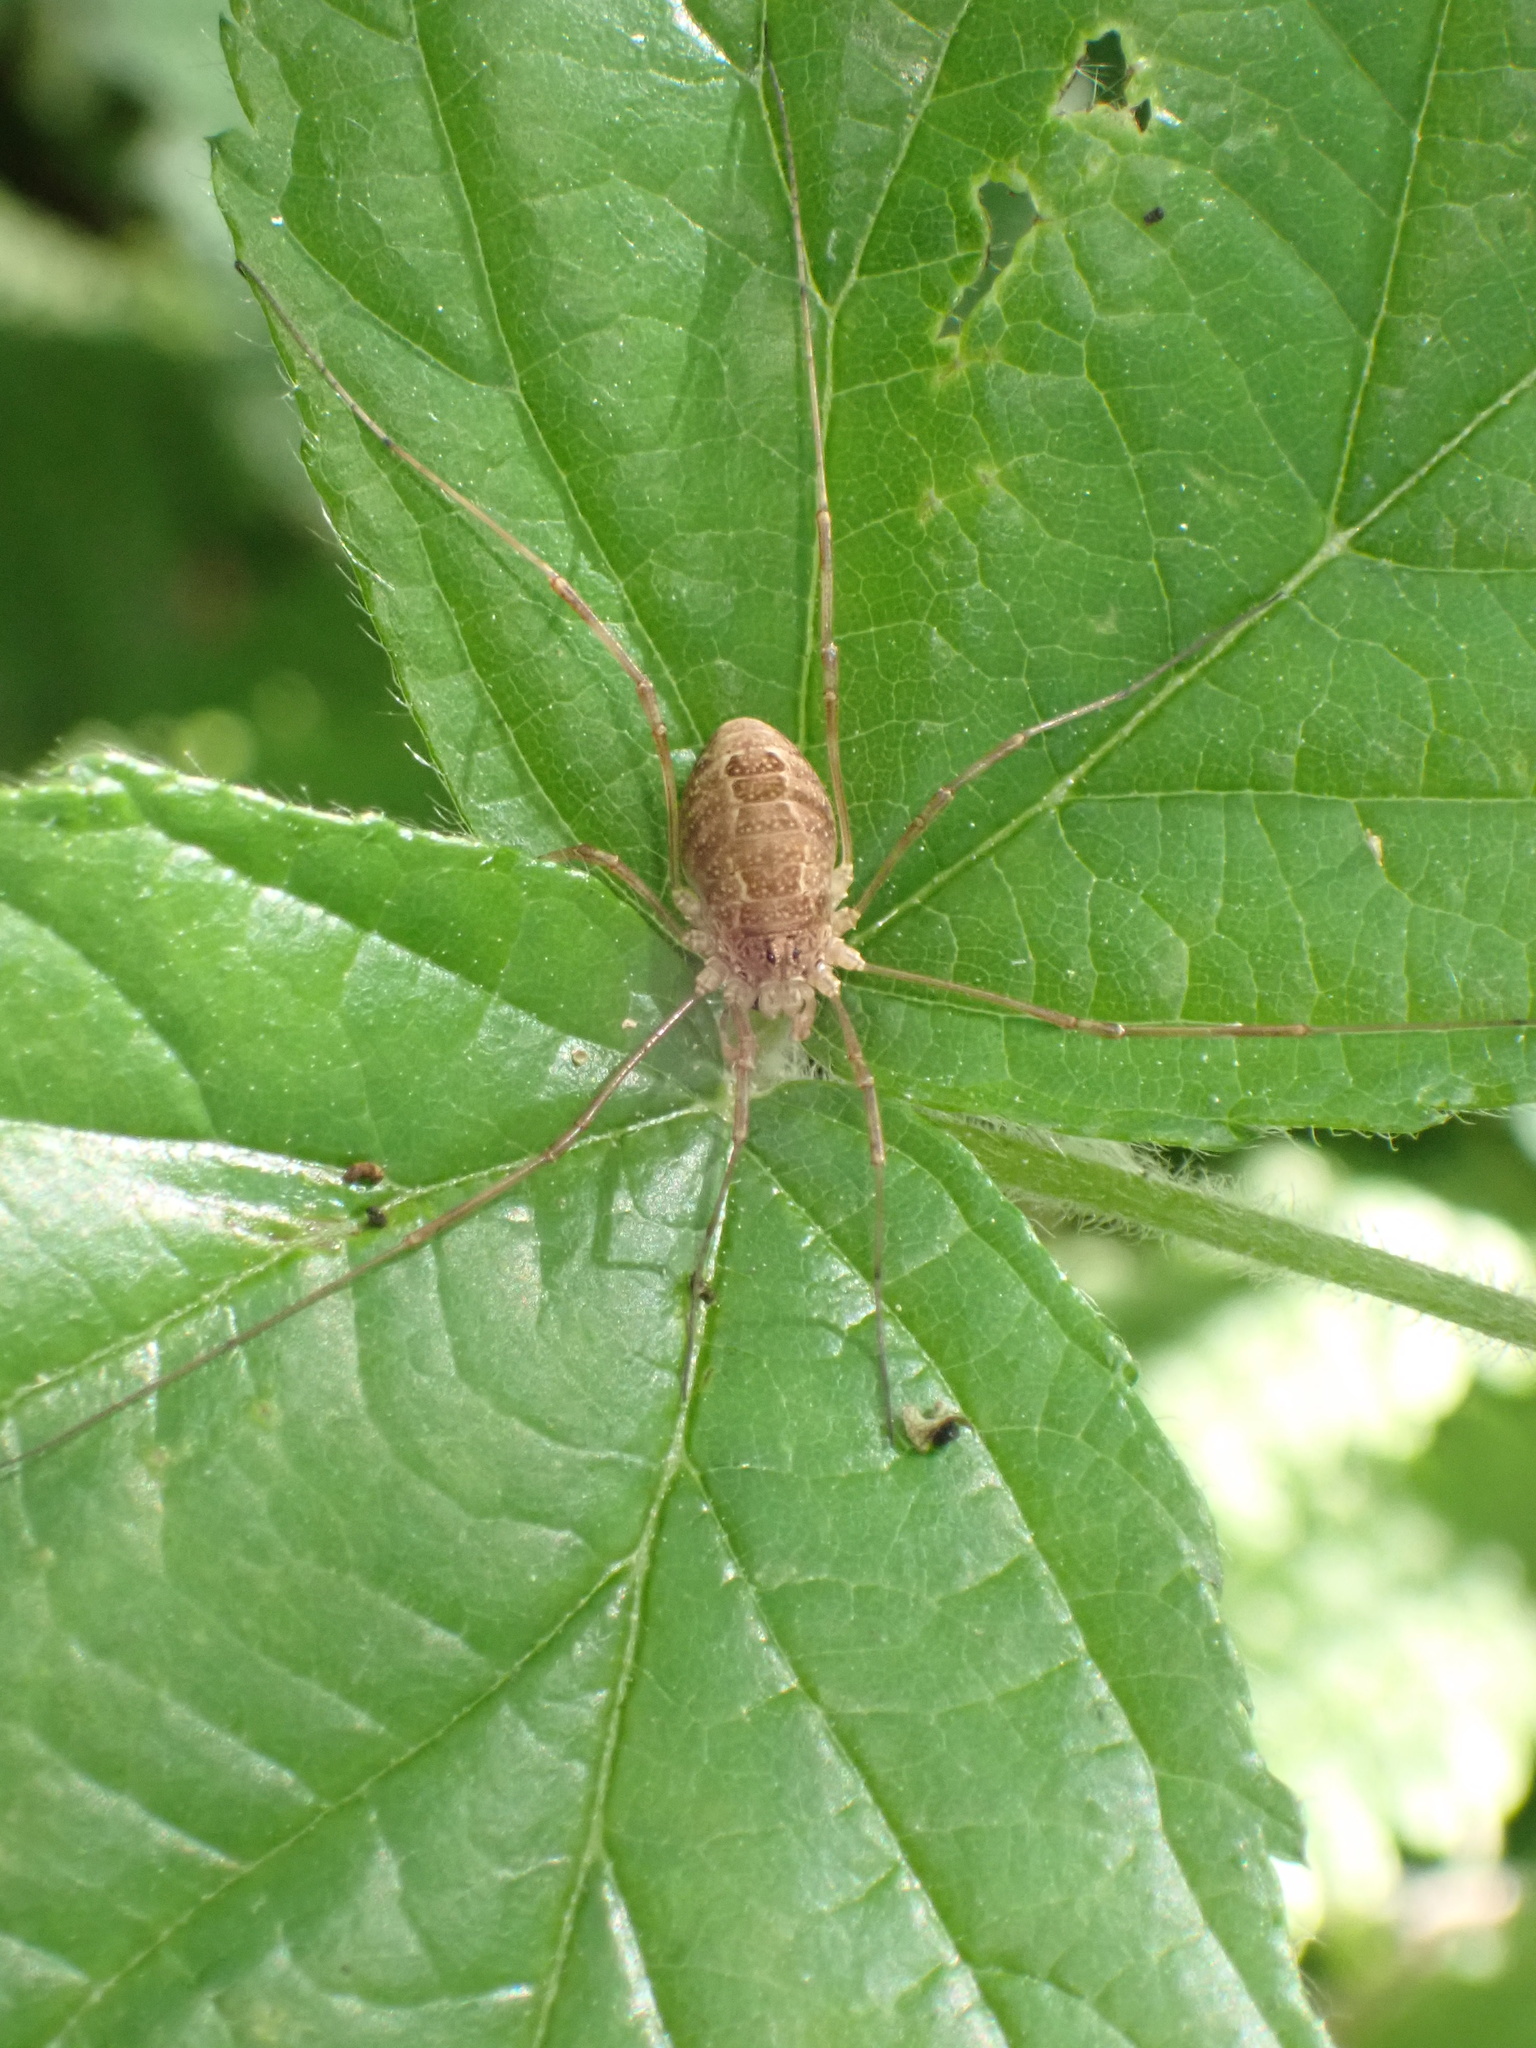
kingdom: Animalia
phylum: Arthropoda
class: Arachnida
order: Opiliones
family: Phalangiidae
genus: Rilaena
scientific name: Rilaena triangularis
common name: Spring harvestman
